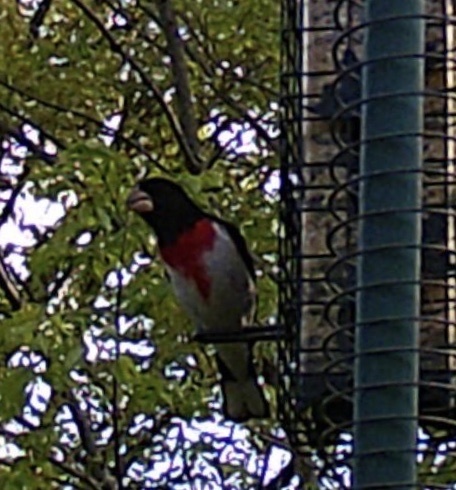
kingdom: Animalia
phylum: Chordata
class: Aves
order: Passeriformes
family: Cardinalidae
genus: Pheucticus
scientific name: Pheucticus ludovicianus
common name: Rose-breasted grosbeak
